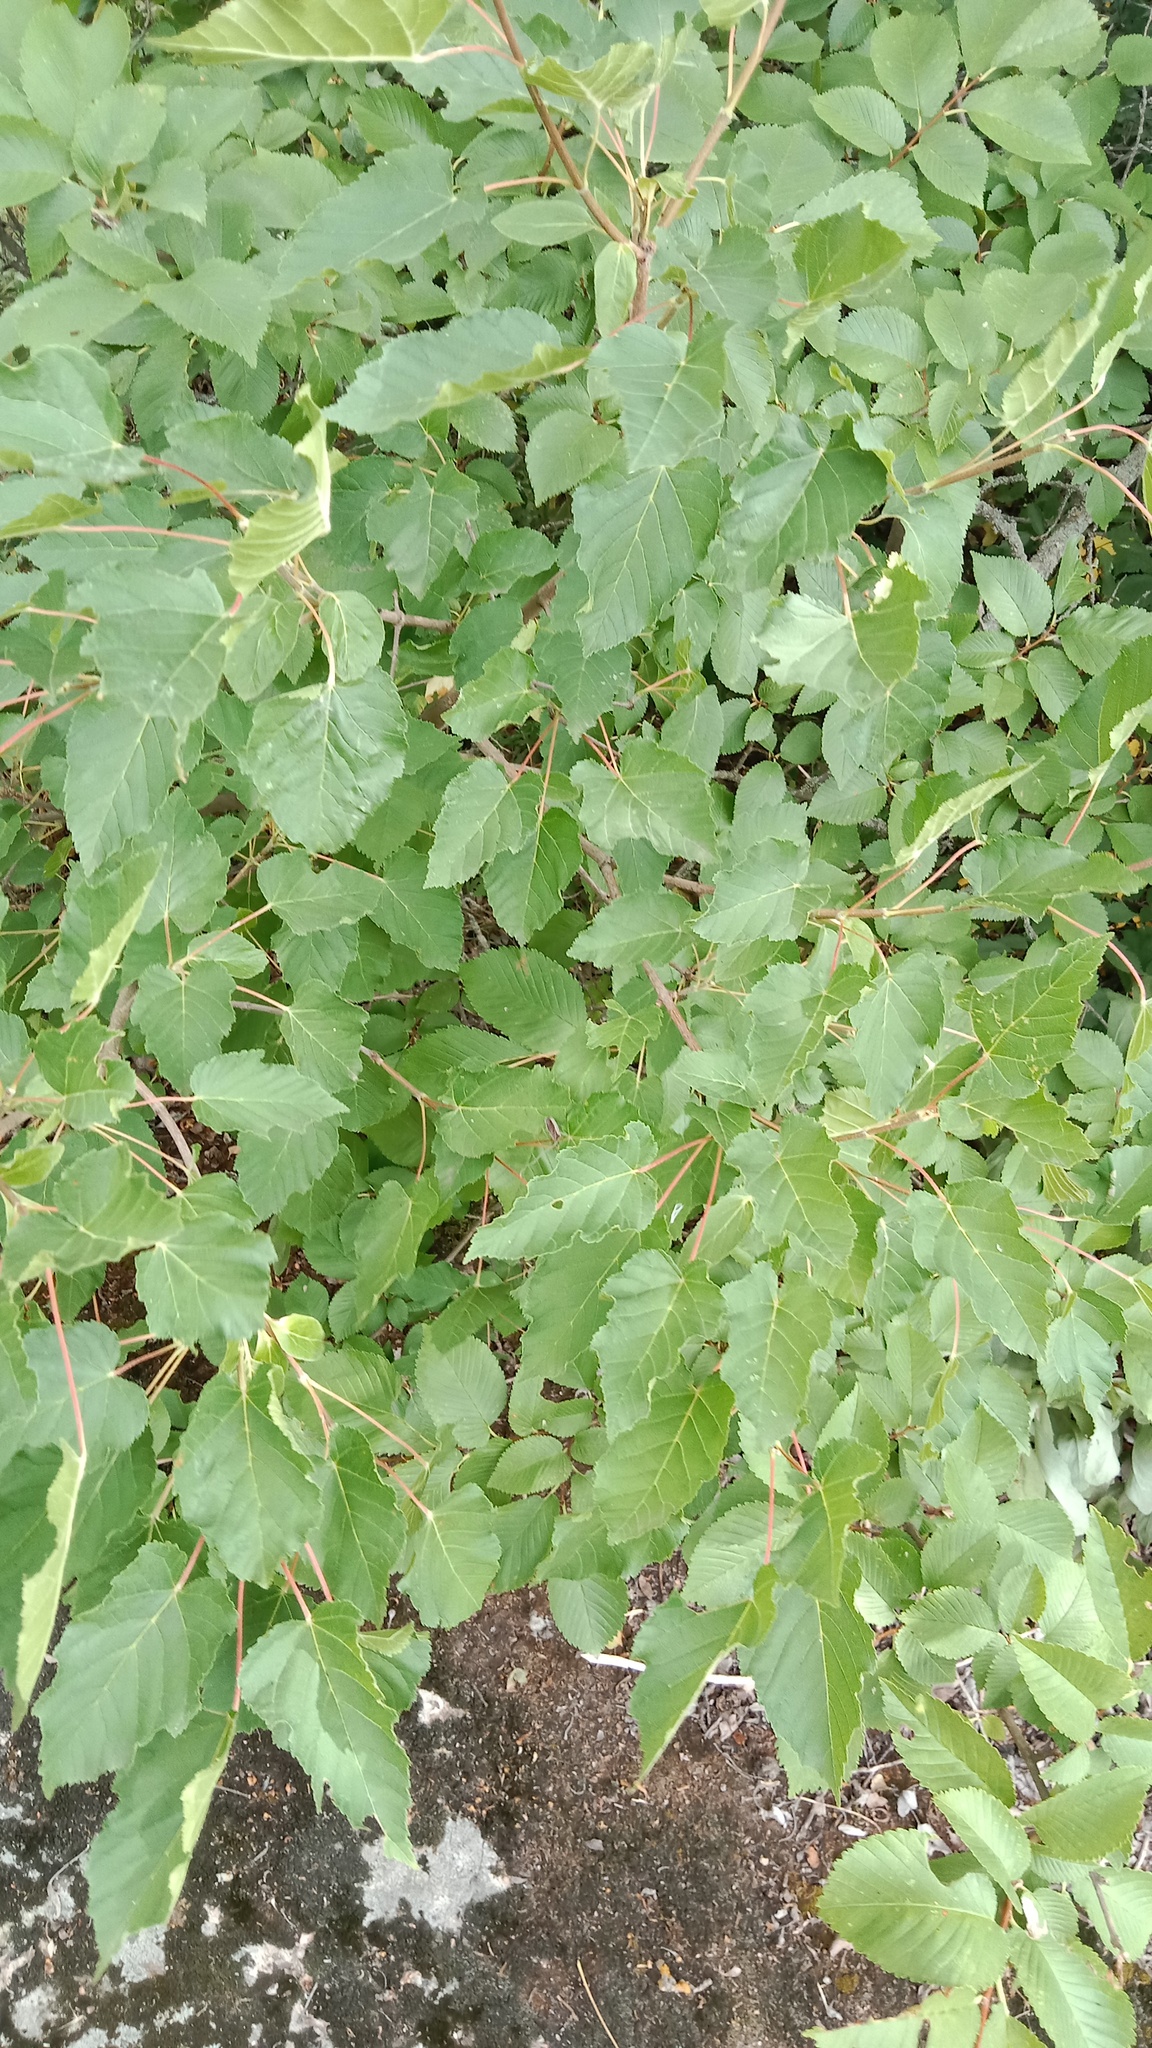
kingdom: Plantae
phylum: Tracheophyta
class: Magnoliopsida
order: Sapindales
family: Sapindaceae
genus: Acer
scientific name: Acer tataricum
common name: Tartar maple
